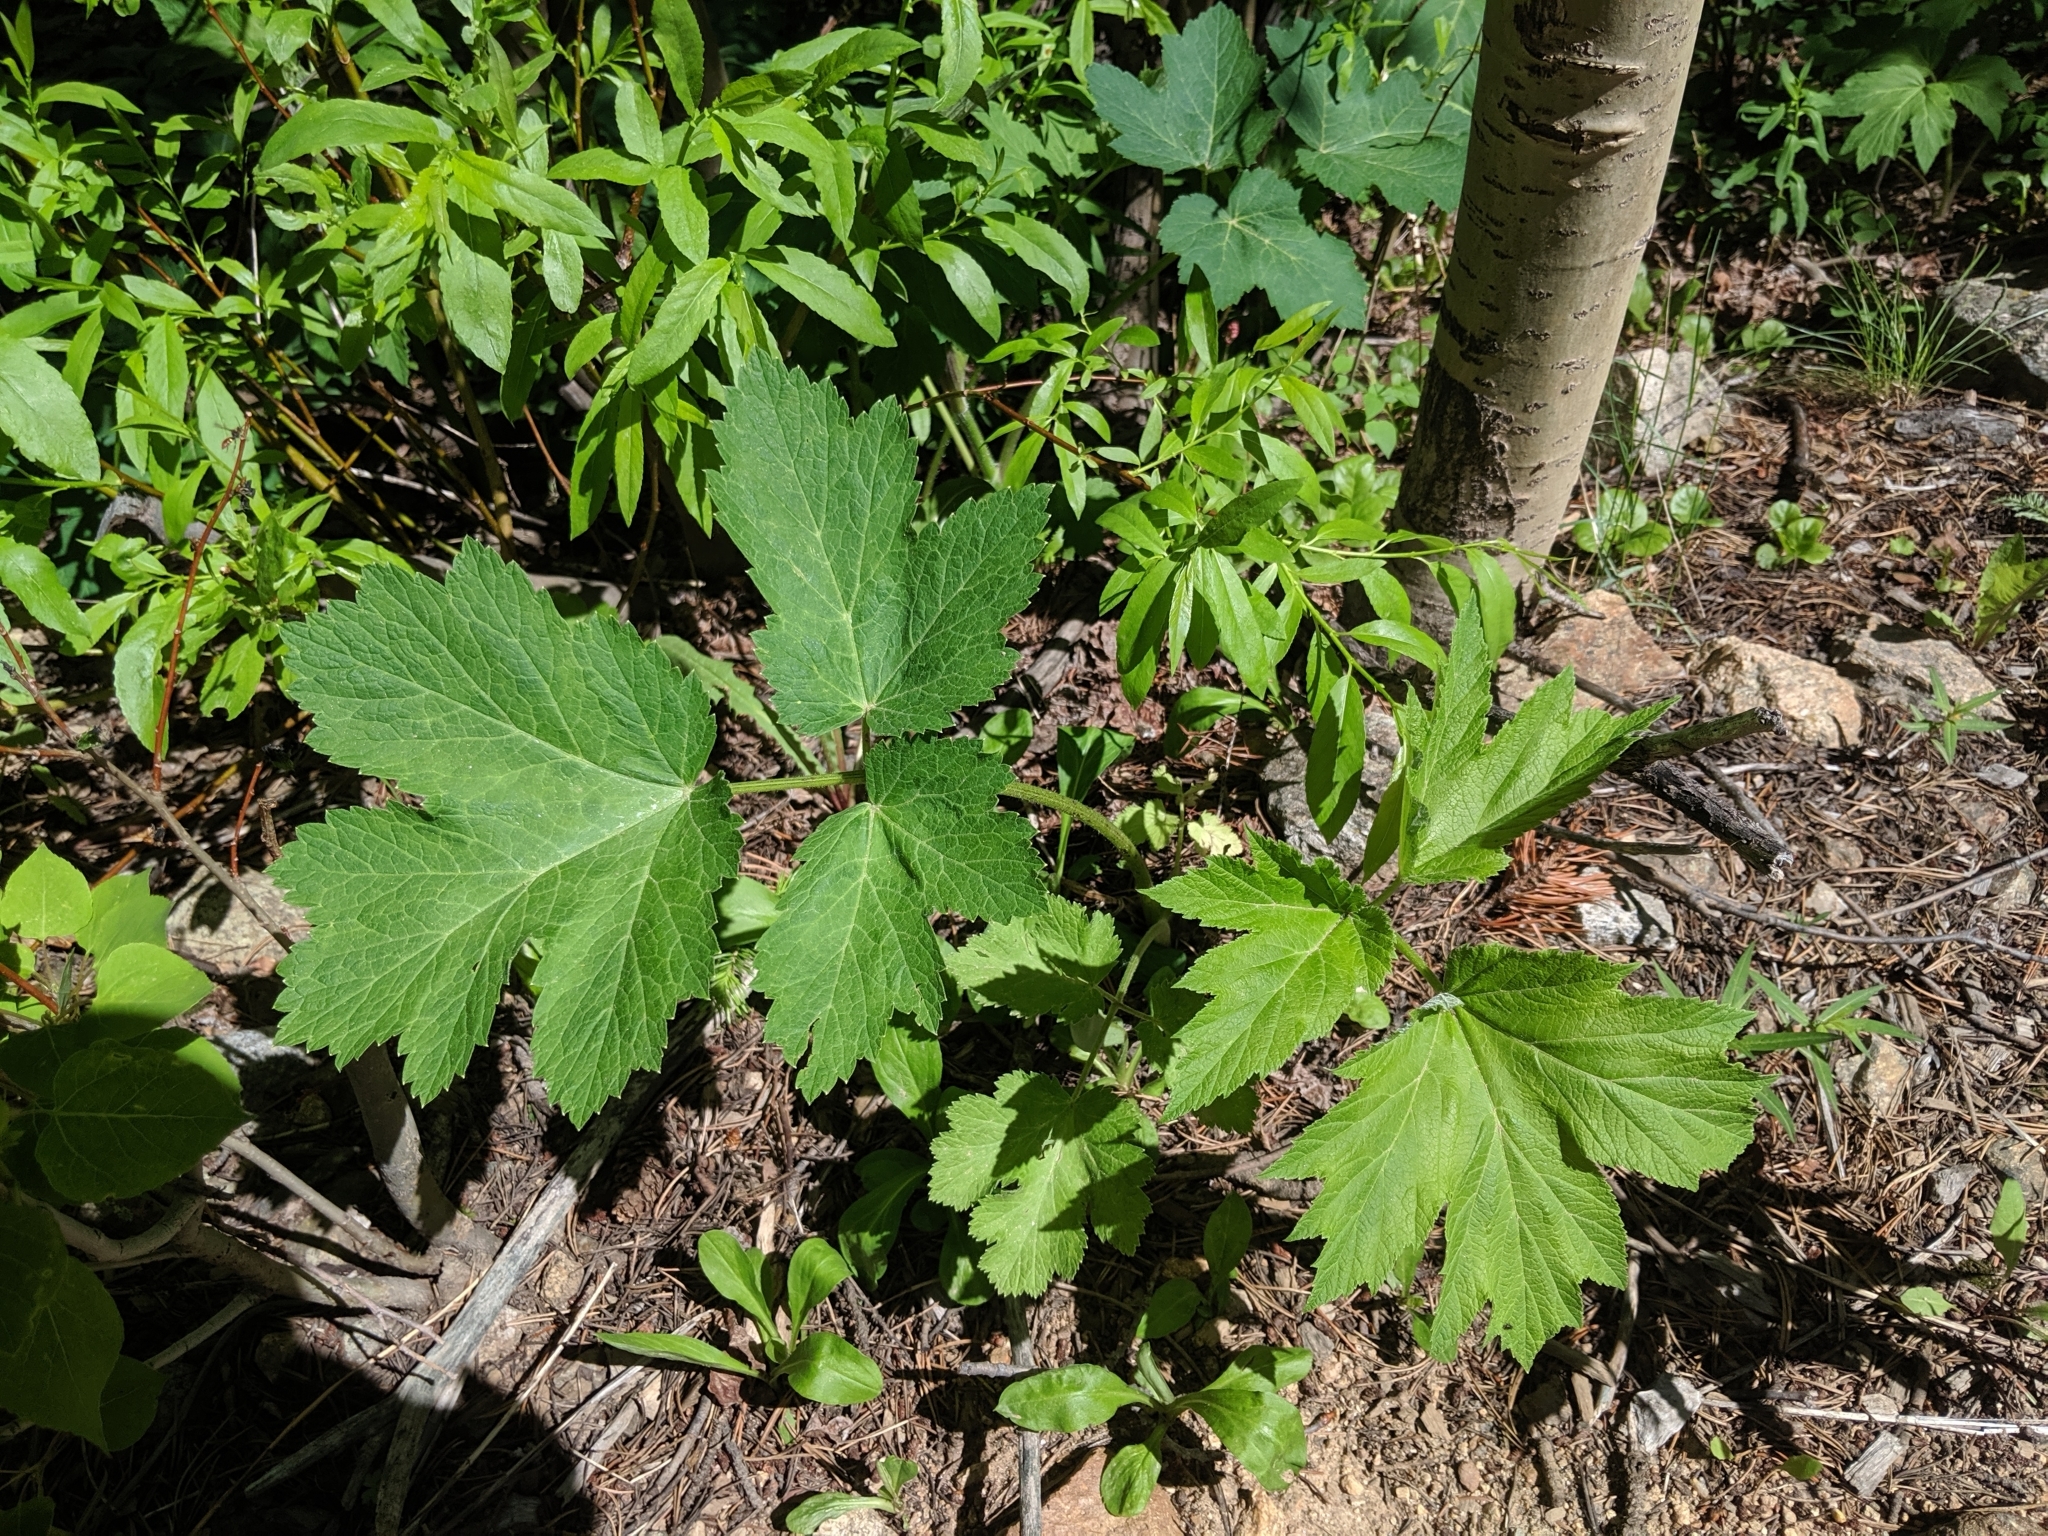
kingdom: Plantae
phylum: Tracheophyta
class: Magnoliopsida
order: Apiales
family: Apiaceae
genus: Heracleum
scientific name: Heracleum maximum
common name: American cow parsnip
